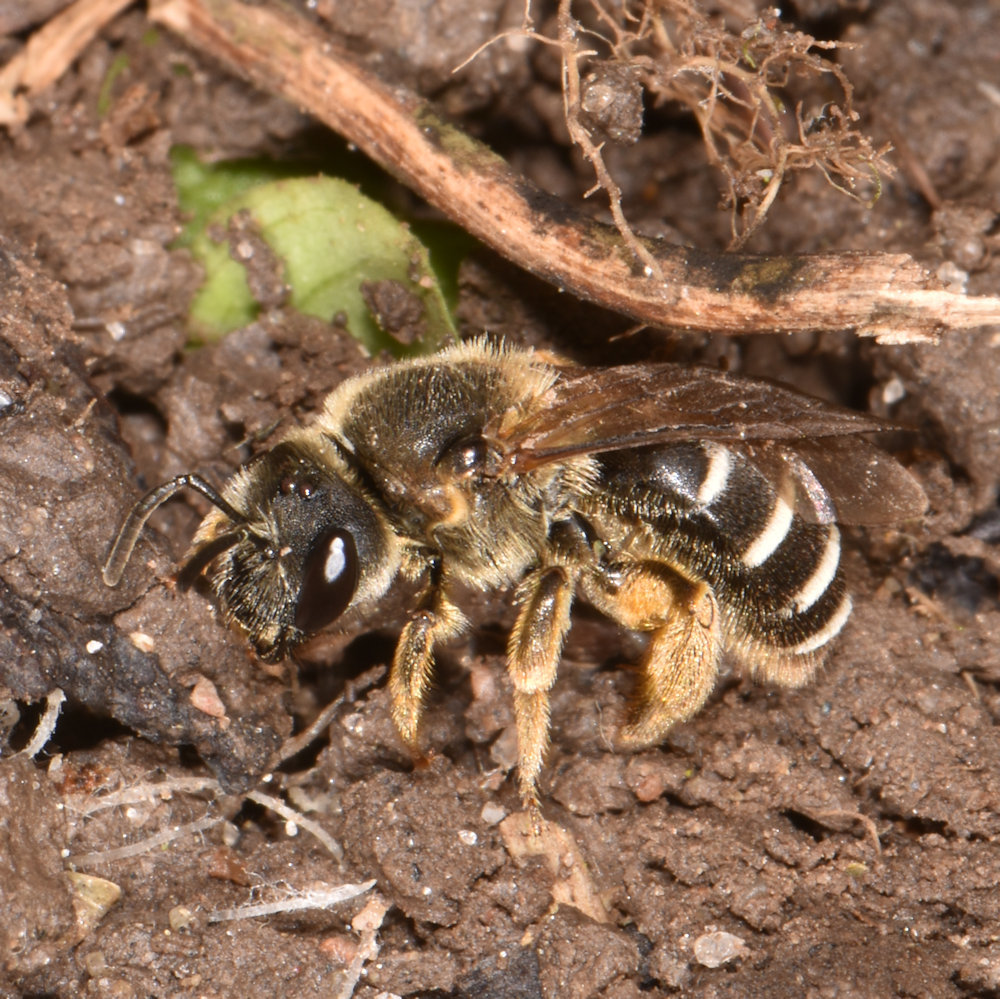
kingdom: Animalia
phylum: Arthropoda
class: Insecta
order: Hymenoptera
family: Halictidae
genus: Halictus
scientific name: Halictus rubicundus
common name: Orange-legged furrow bee
